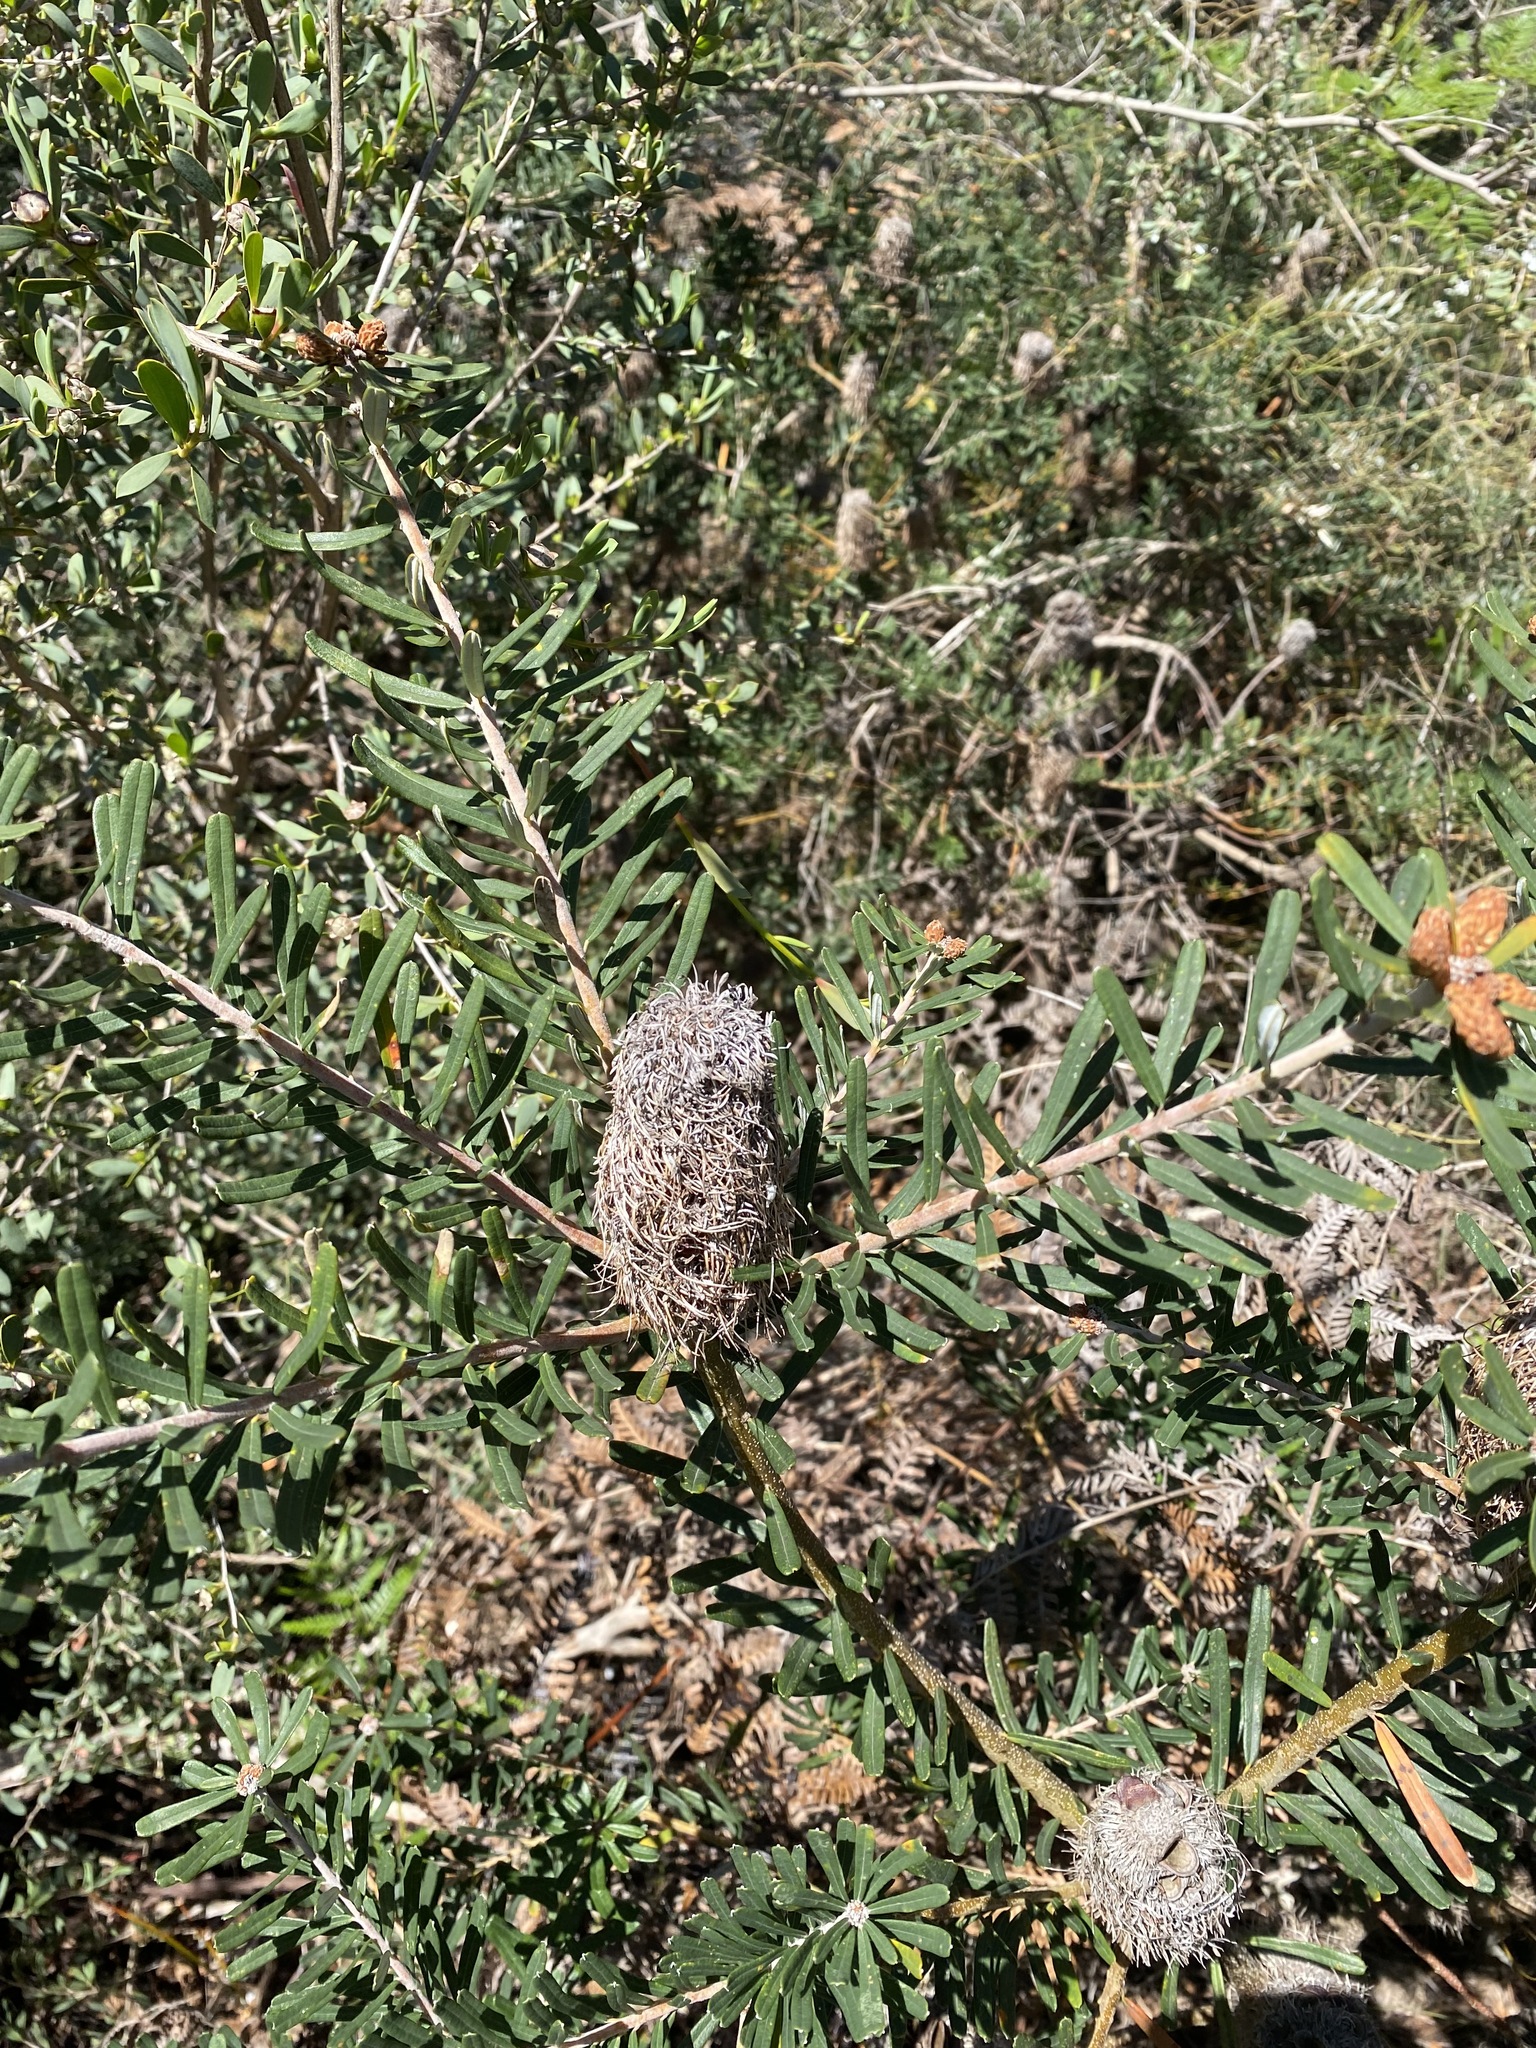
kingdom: Plantae
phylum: Tracheophyta
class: Magnoliopsida
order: Proteales
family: Proteaceae
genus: Banksia
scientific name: Banksia marginata
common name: Silver banksia
